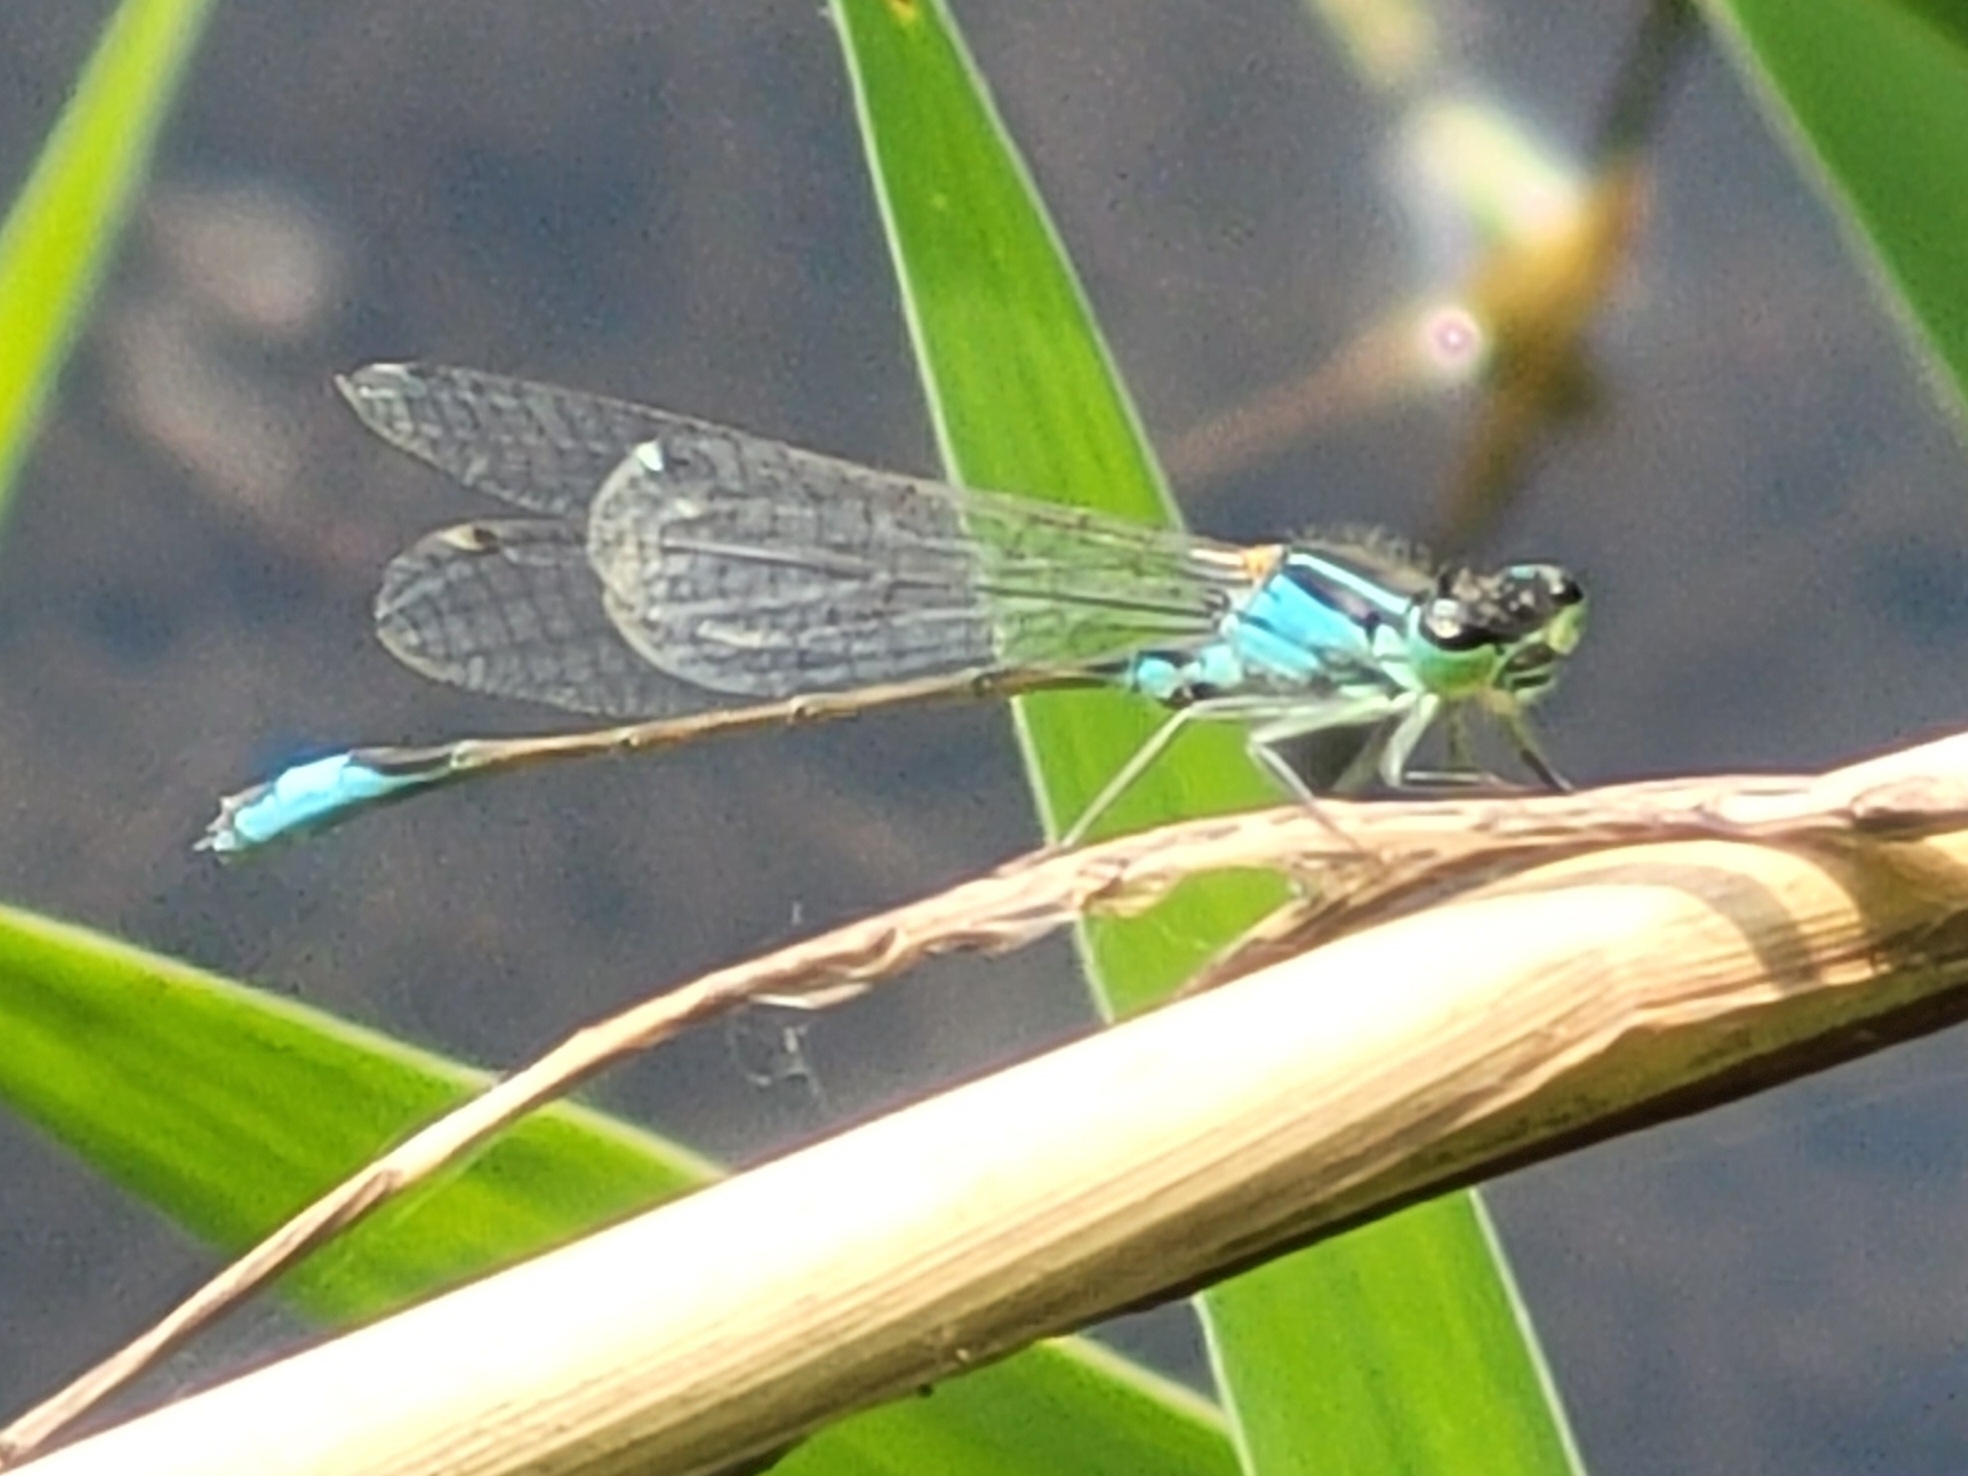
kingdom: Animalia
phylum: Arthropoda
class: Insecta
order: Odonata
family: Coenagrionidae
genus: Ischnura
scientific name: Ischnura elegans
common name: Blue-tailed damselfly
